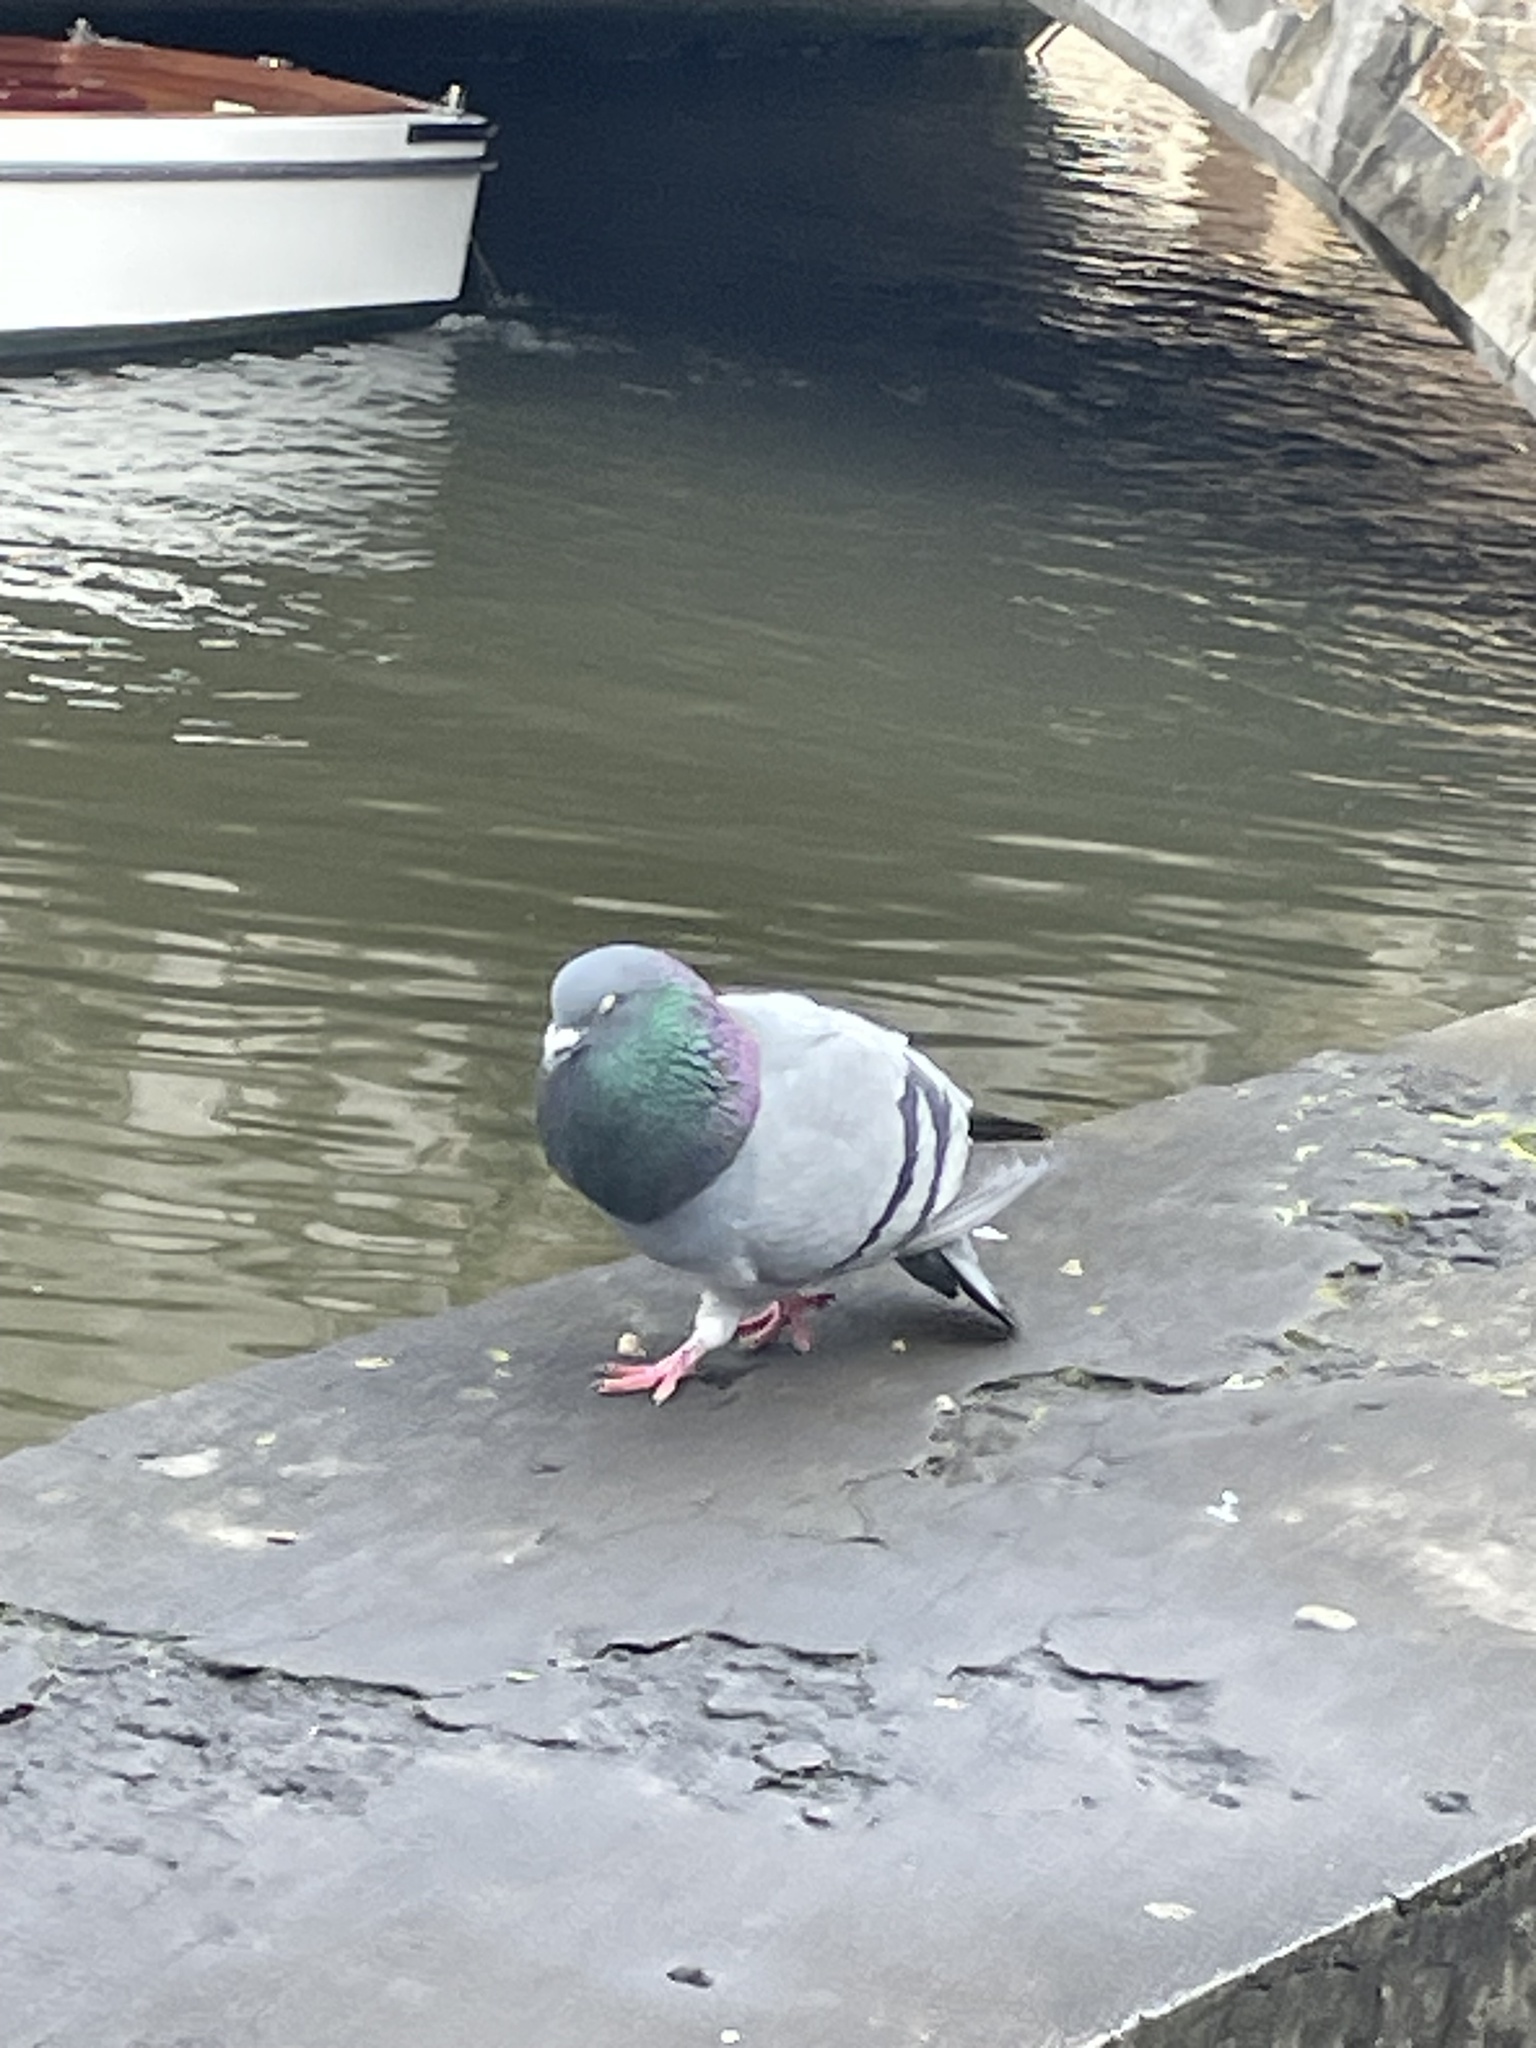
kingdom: Animalia
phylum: Chordata
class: Aves
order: Columbiformes
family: Columbidae
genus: Columba
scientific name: Columba livia
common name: Rock pigeon
